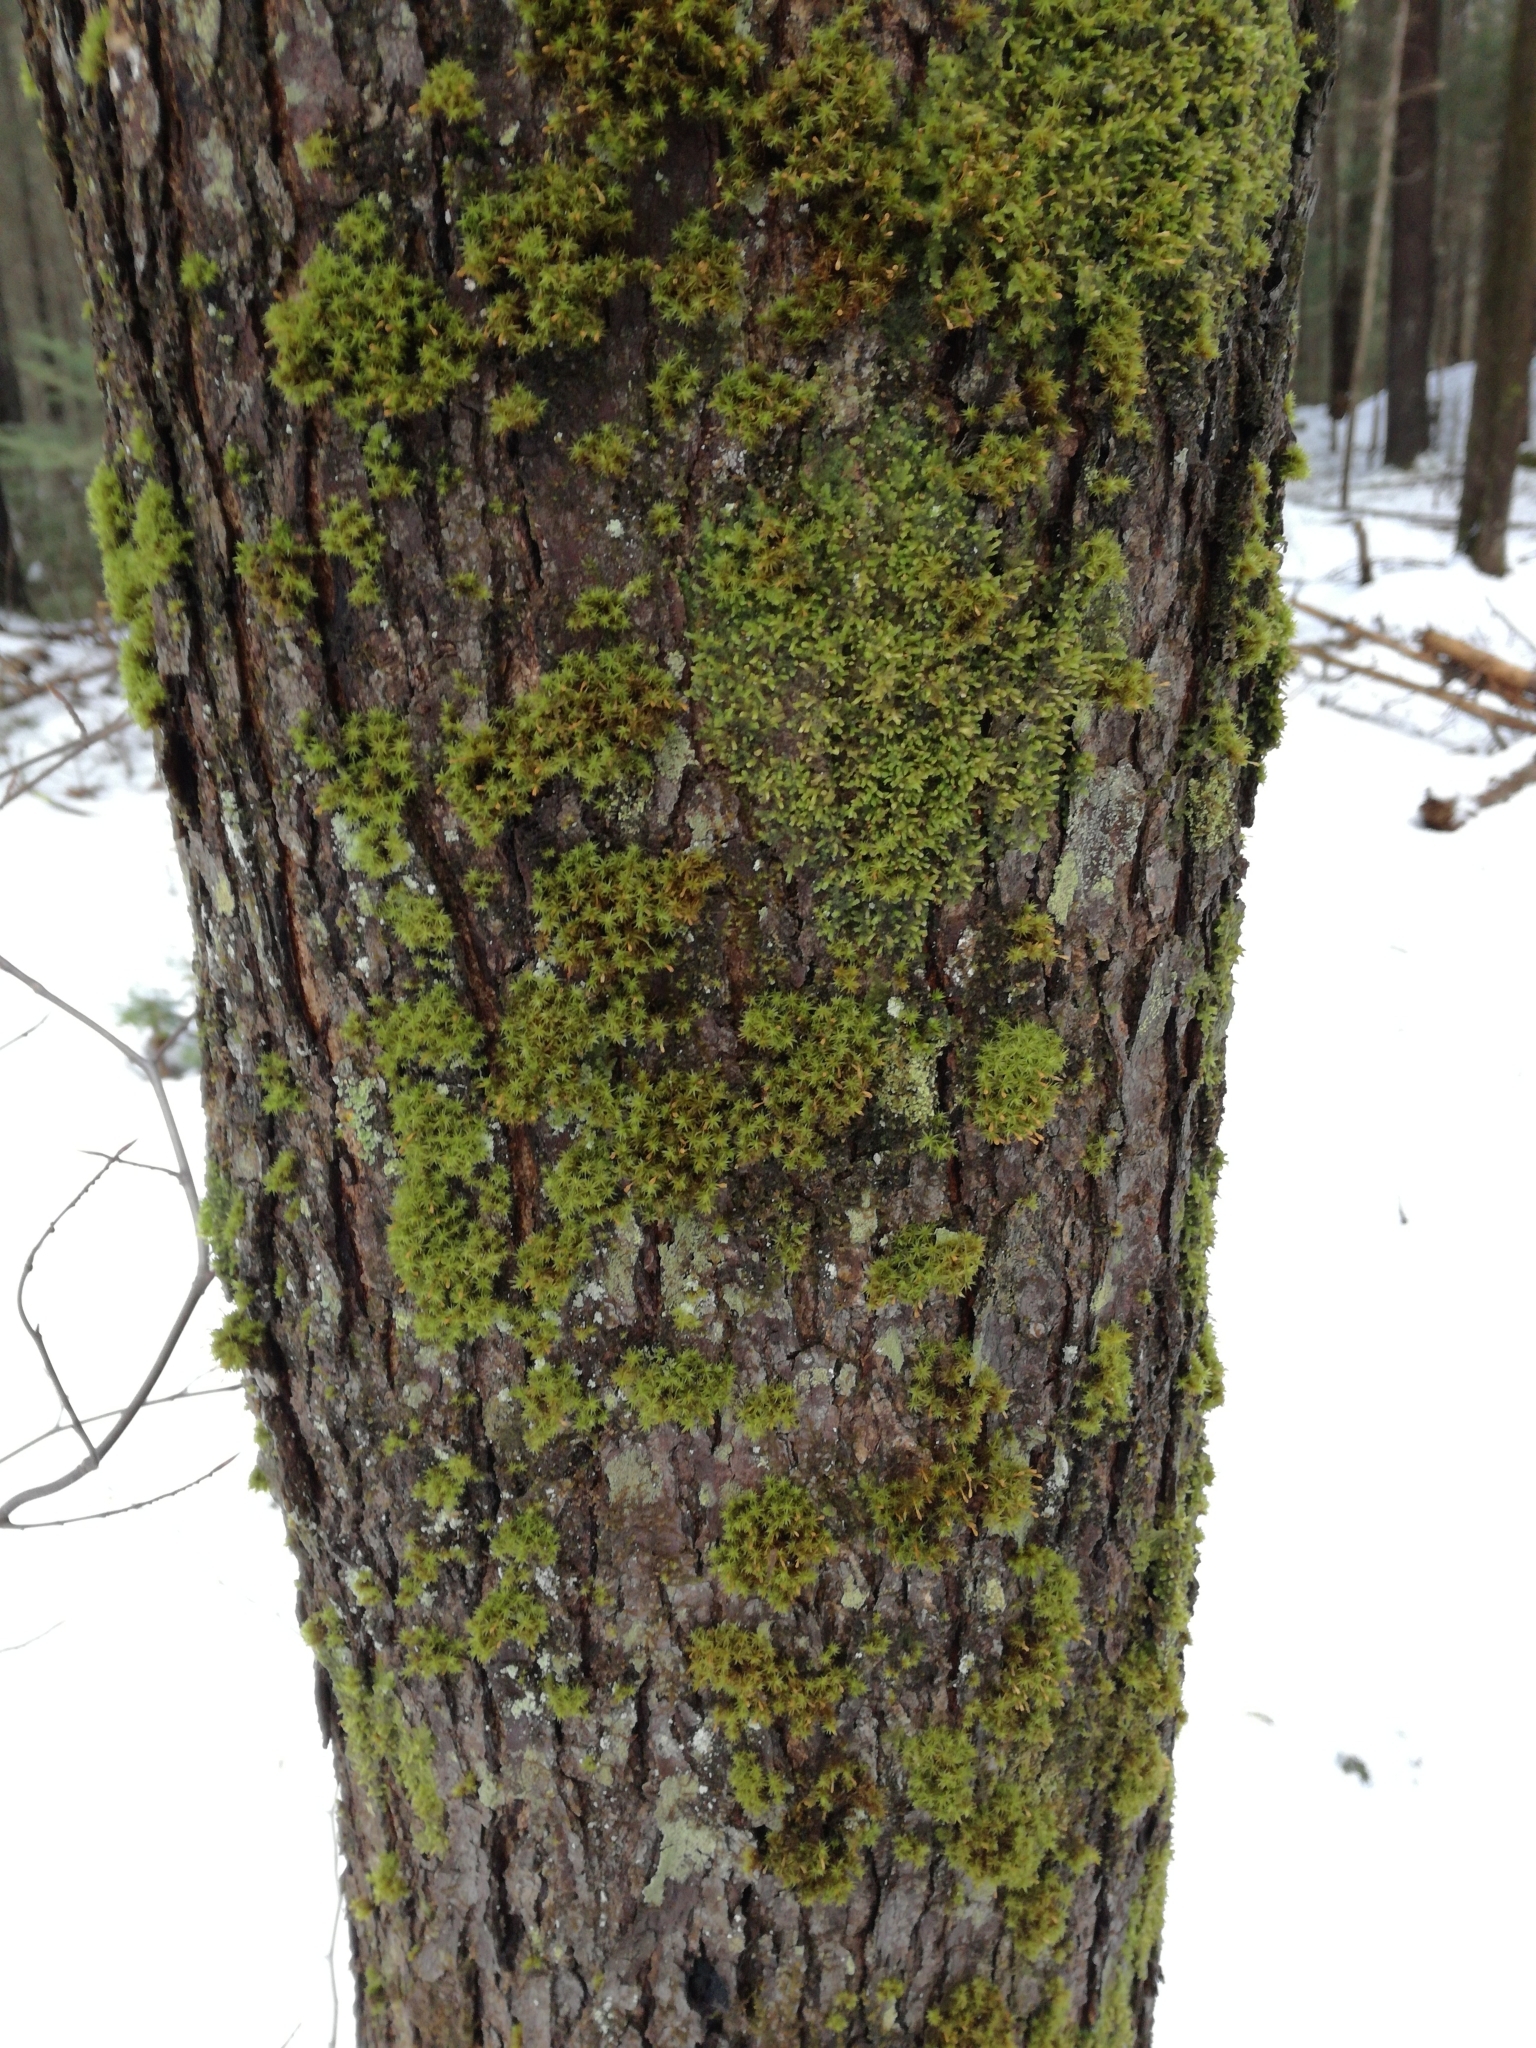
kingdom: Plantae
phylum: Bryophyta
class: Bryopsida
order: Orthotrichales
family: Orthotrichaceae
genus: Ulota
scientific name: Ulota crispa
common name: Crisped pincushion moss
